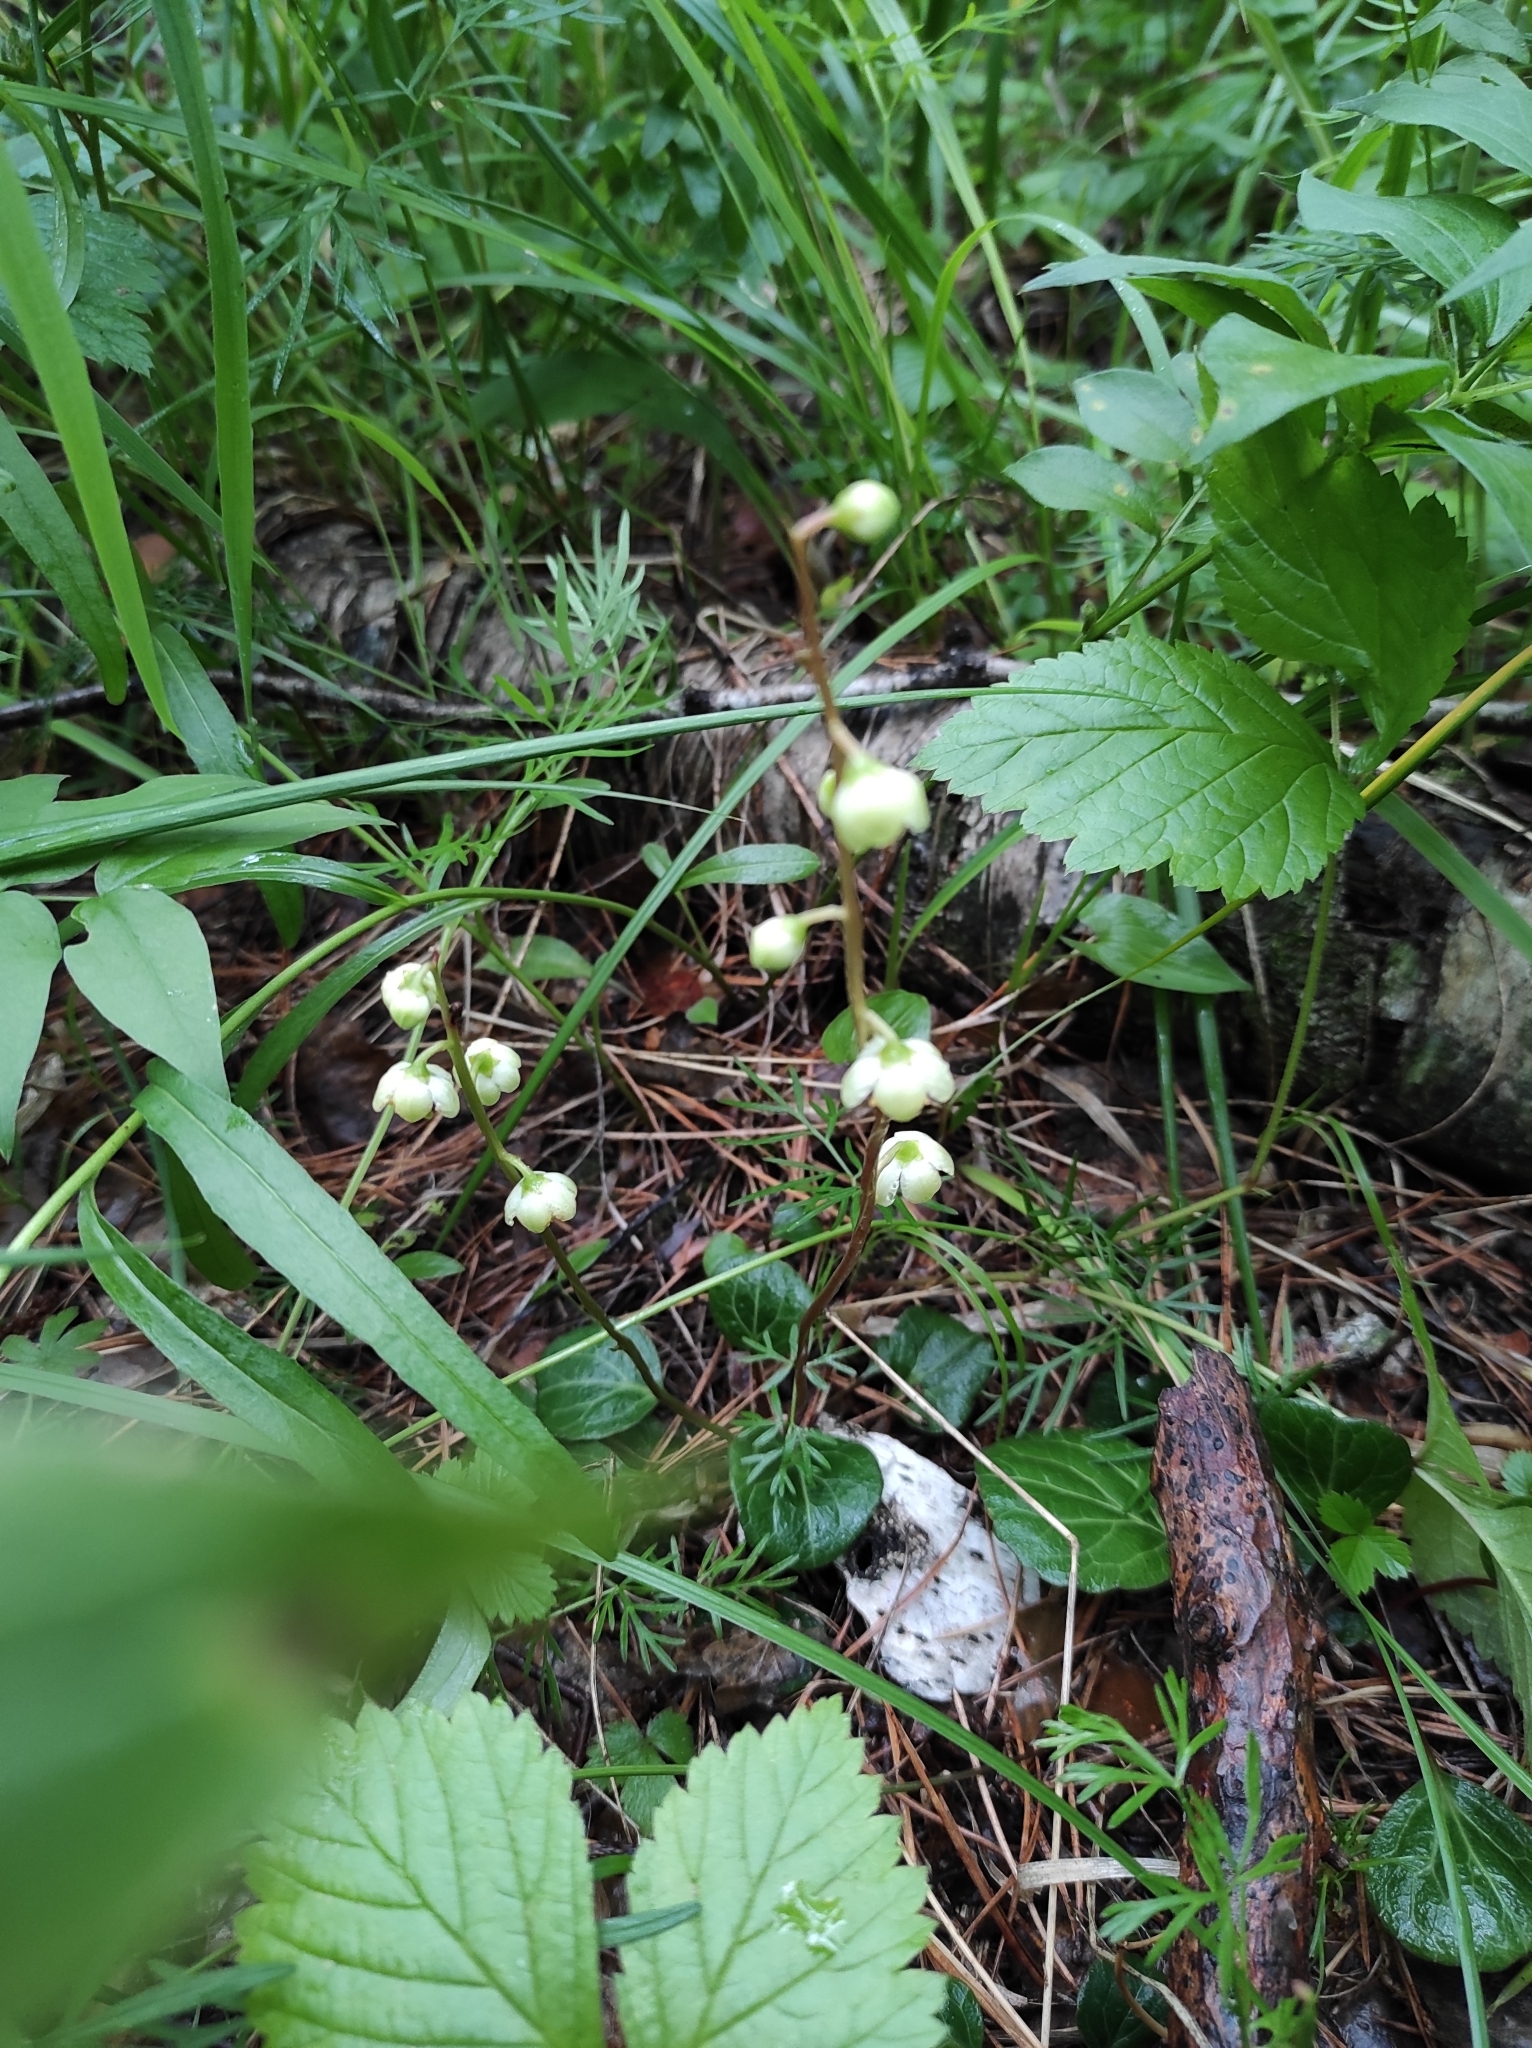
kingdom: Plantae
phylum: Tracheophyta
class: Magnoliopsida
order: Ericales
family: Ericaceae
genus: Pyrola
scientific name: Pyrola chlorantha
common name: Green wintergreen
